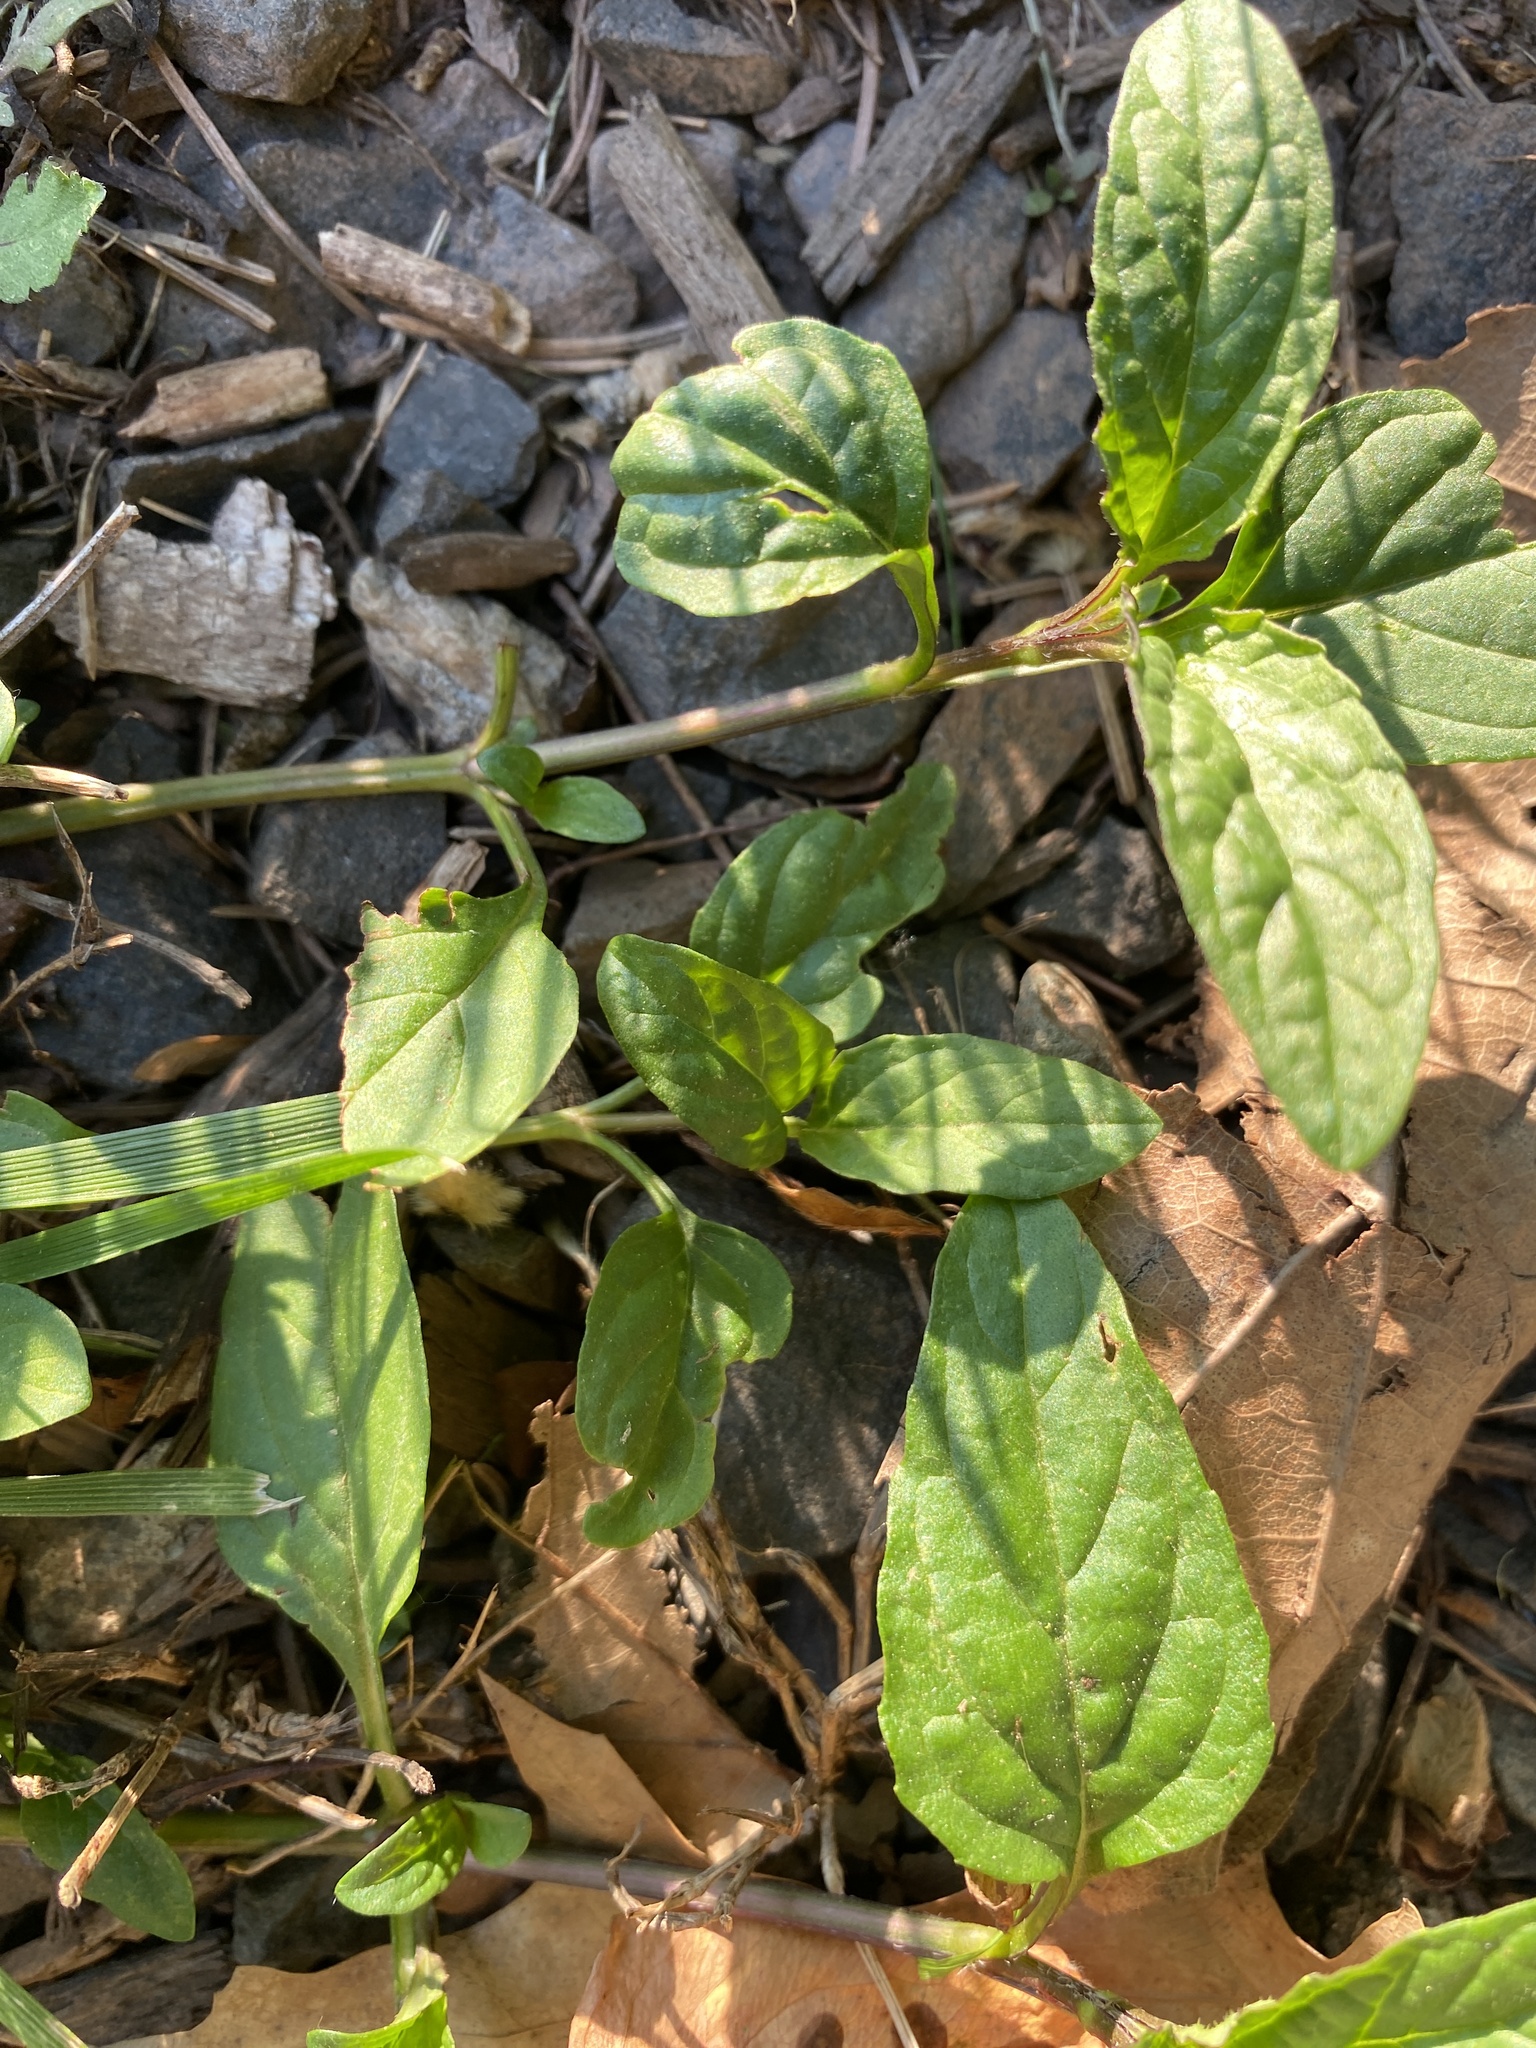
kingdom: Plantae
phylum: Tracheophyta
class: Magnoliopsida
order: Lamiales
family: Lamiaceae
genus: Prunella
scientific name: Prunella vulgaris
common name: Heal-all
